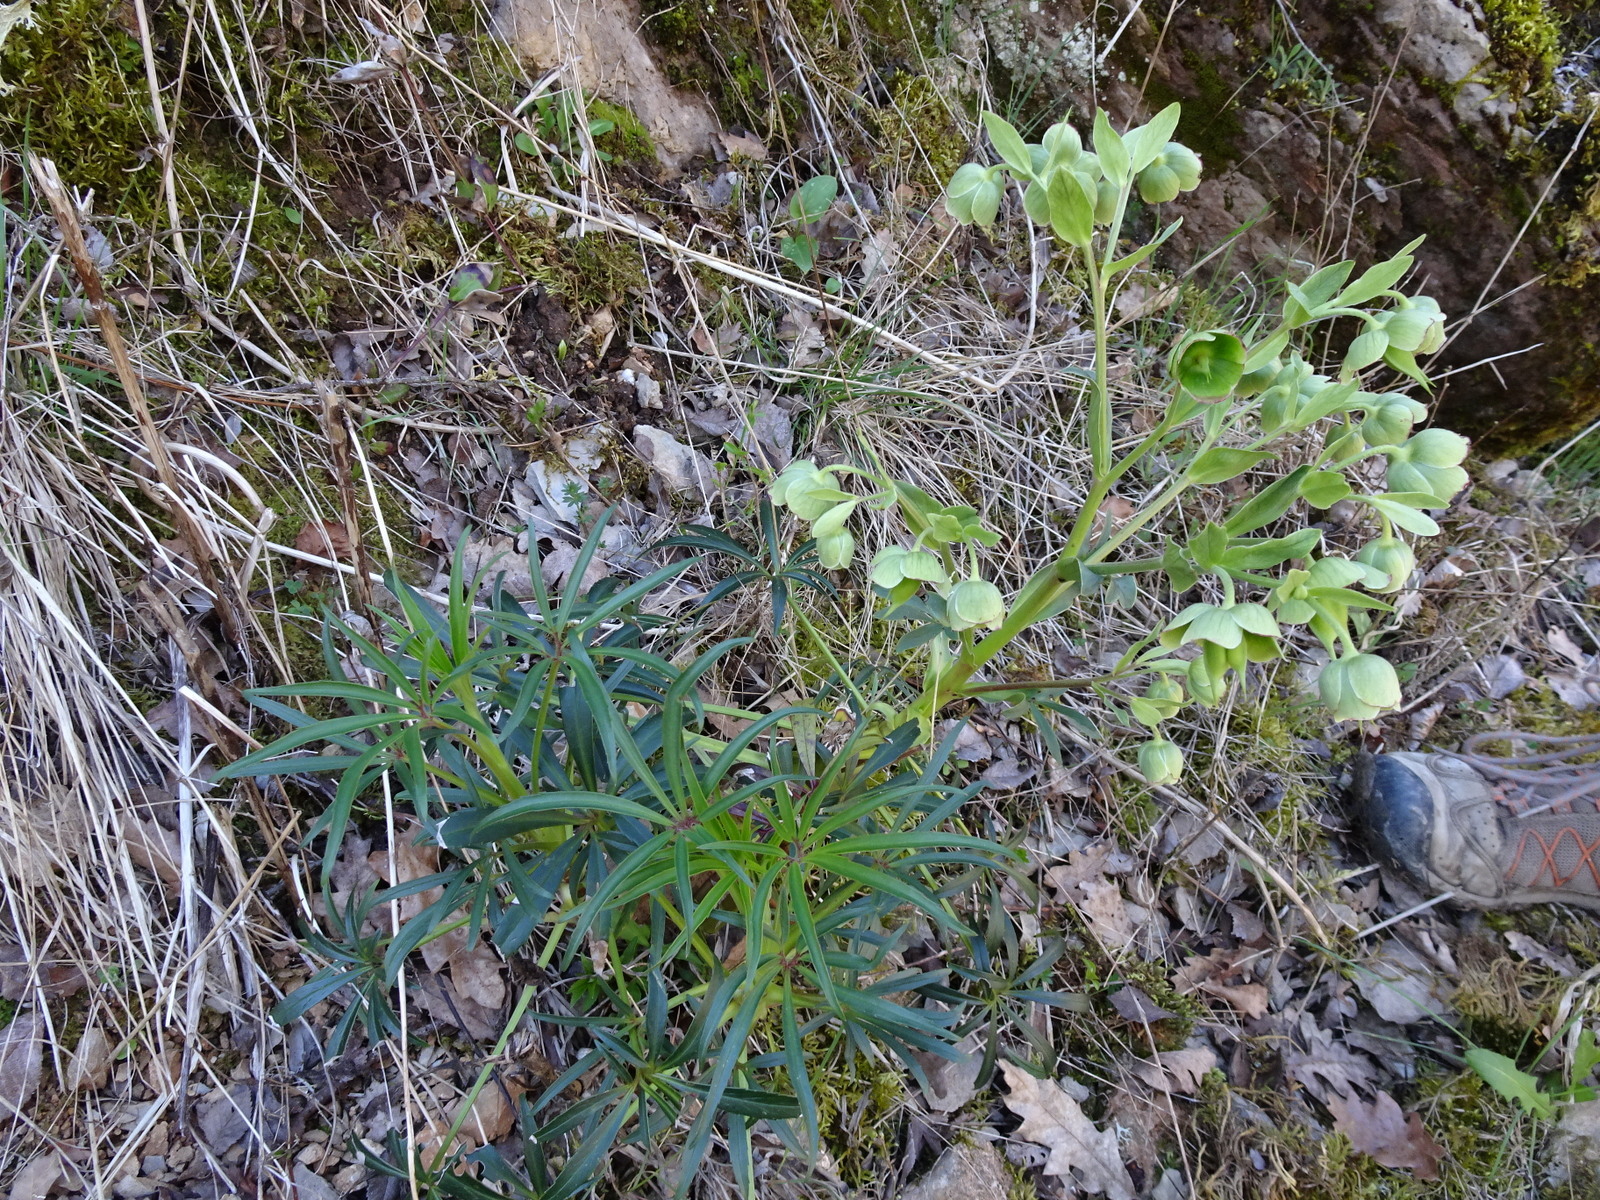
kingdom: Plantae
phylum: Tracheophyta
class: Magnoliopsida
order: Ranunculales
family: Ranunculaceae
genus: Helleborus
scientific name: Helleborus foetidus
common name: Stinking hellebore
